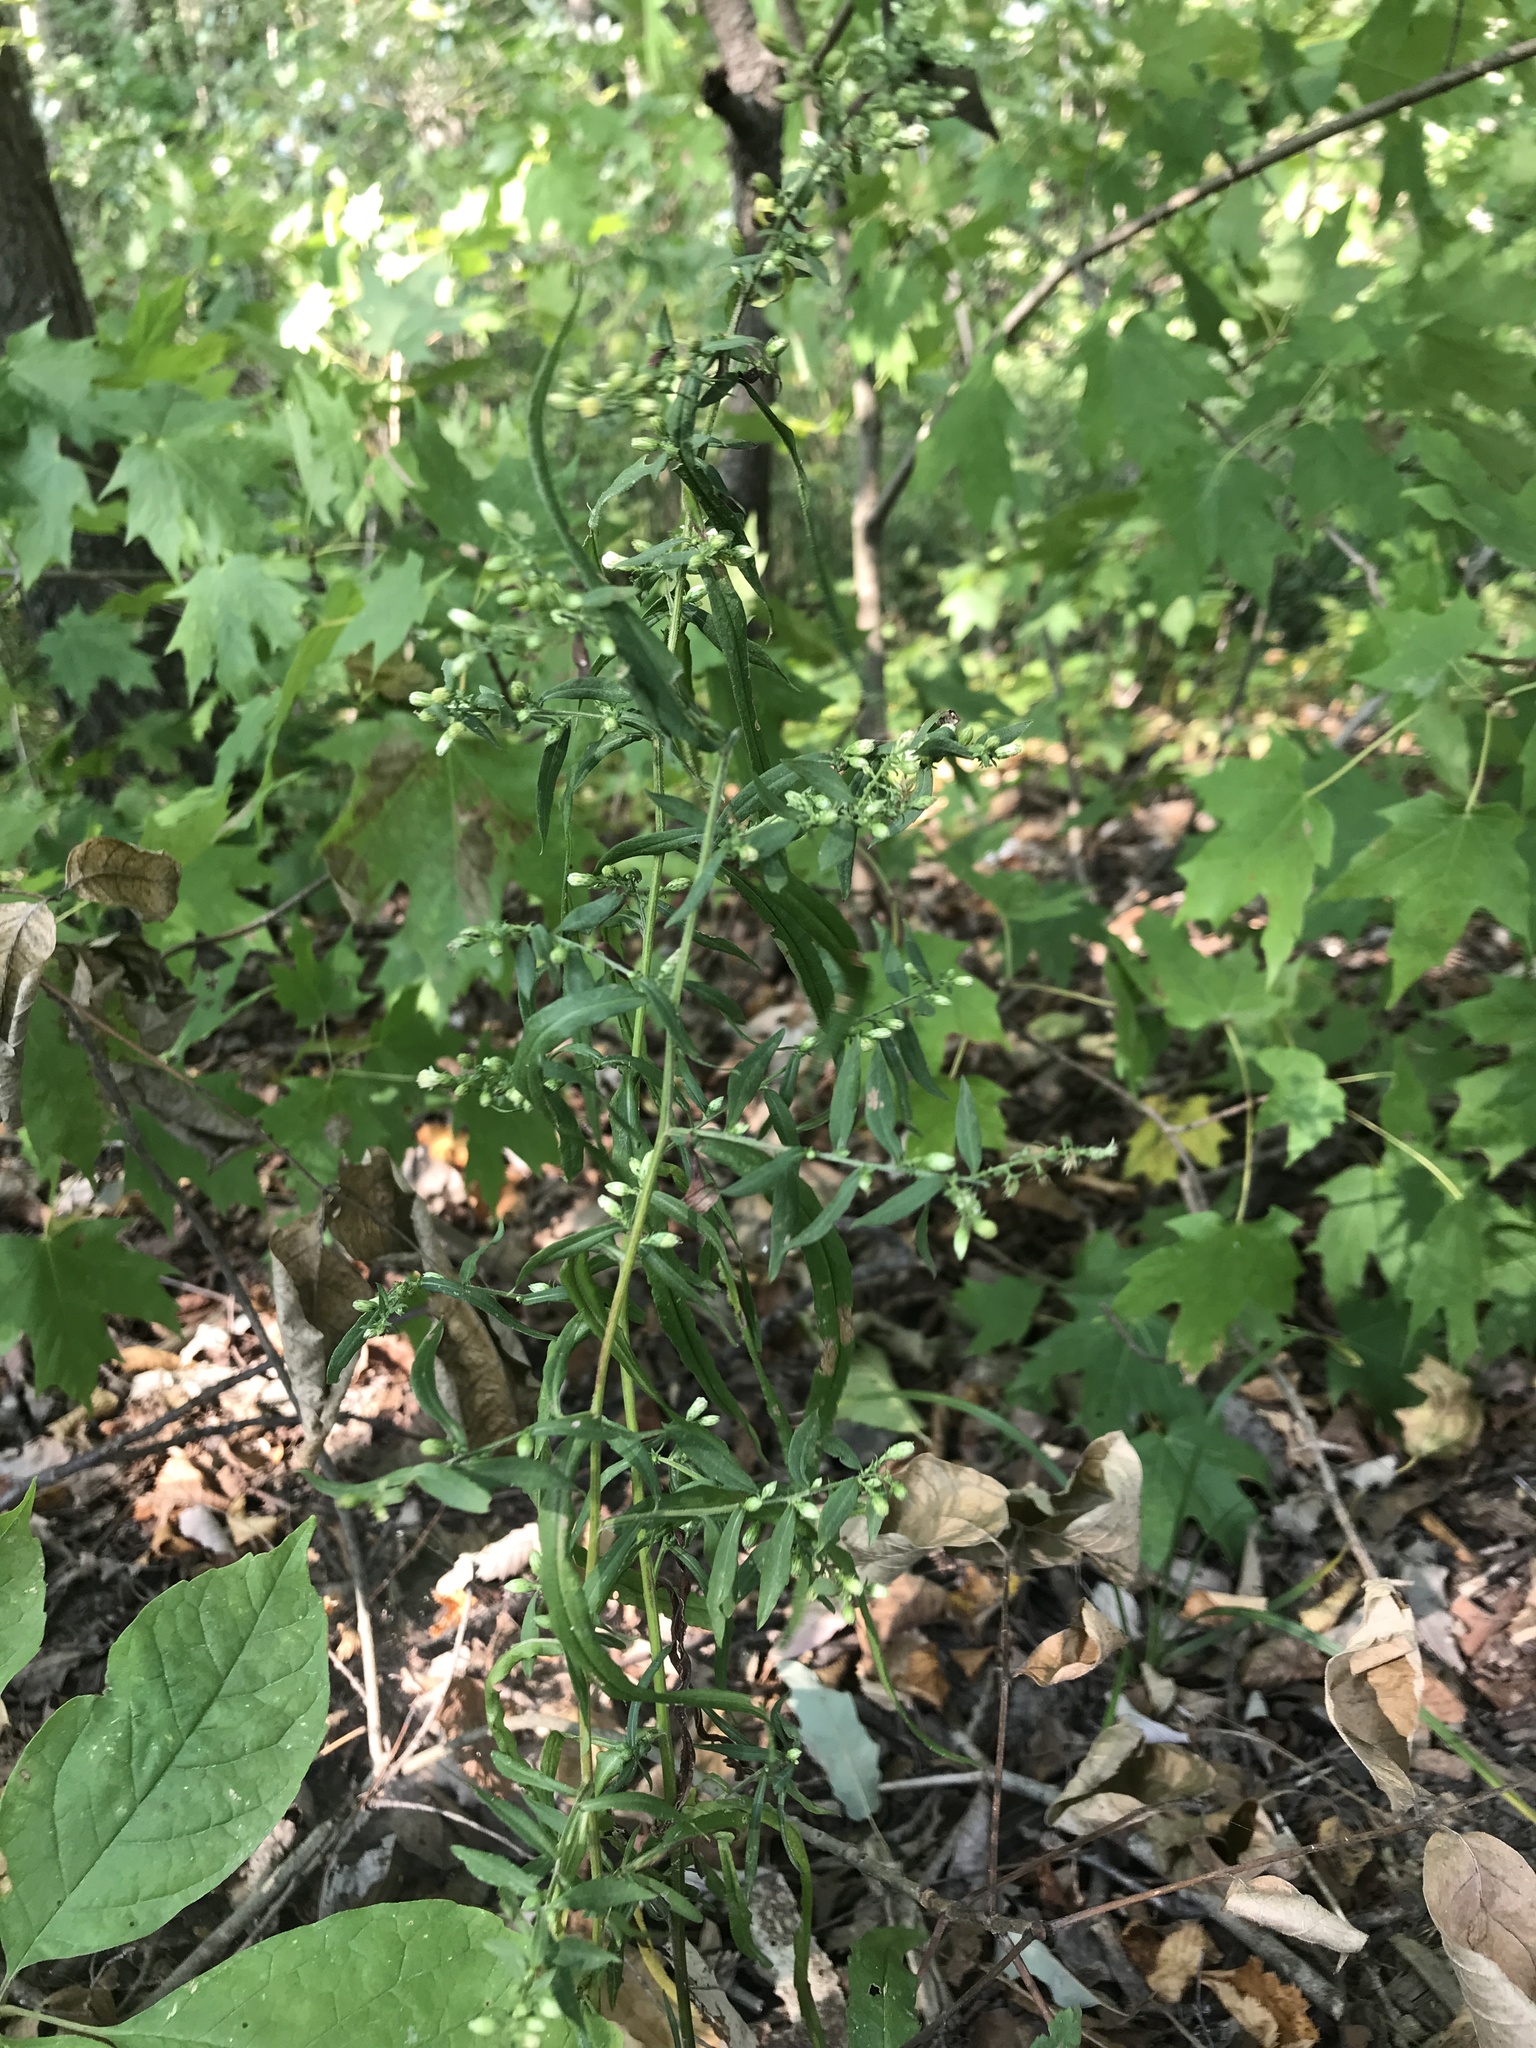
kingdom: Plantae
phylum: Tracheophyta
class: Magnoliopsida
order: Asterales
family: Asteraceae
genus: Symphyotrichum
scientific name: Symphyotrichum lateriflorum
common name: Calico aster
